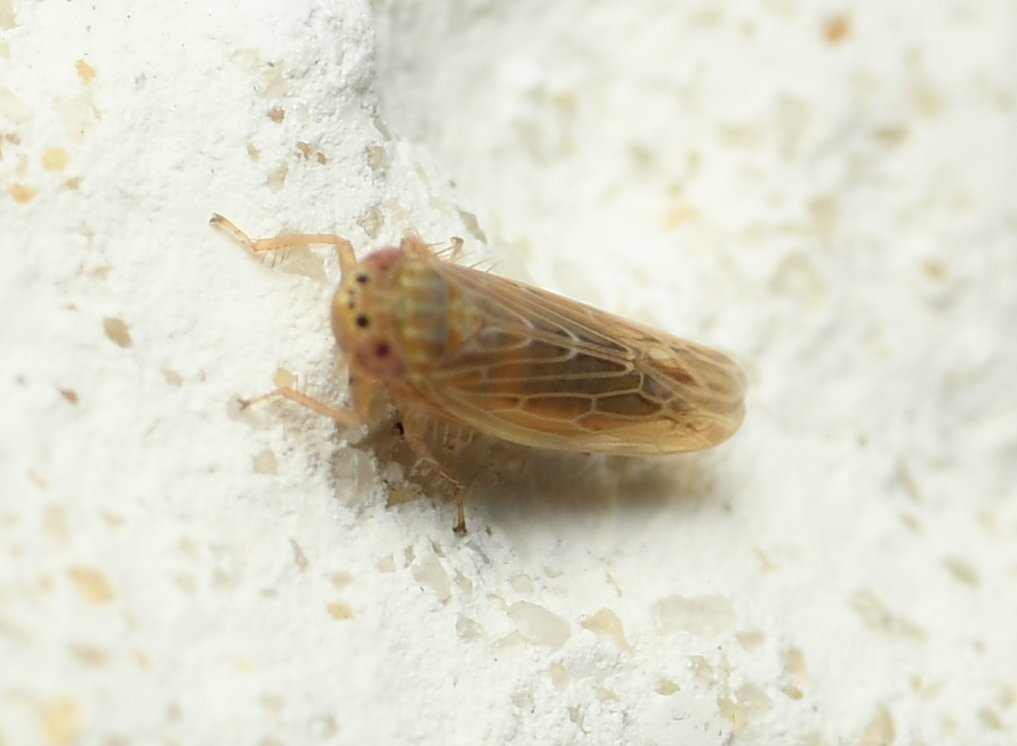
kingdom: Animalia
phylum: Arthropoda
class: Insecta
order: Hemiptera
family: Cicadellidae
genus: Graminella
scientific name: Graminella sonora
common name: Lesser lawn leafhopper
